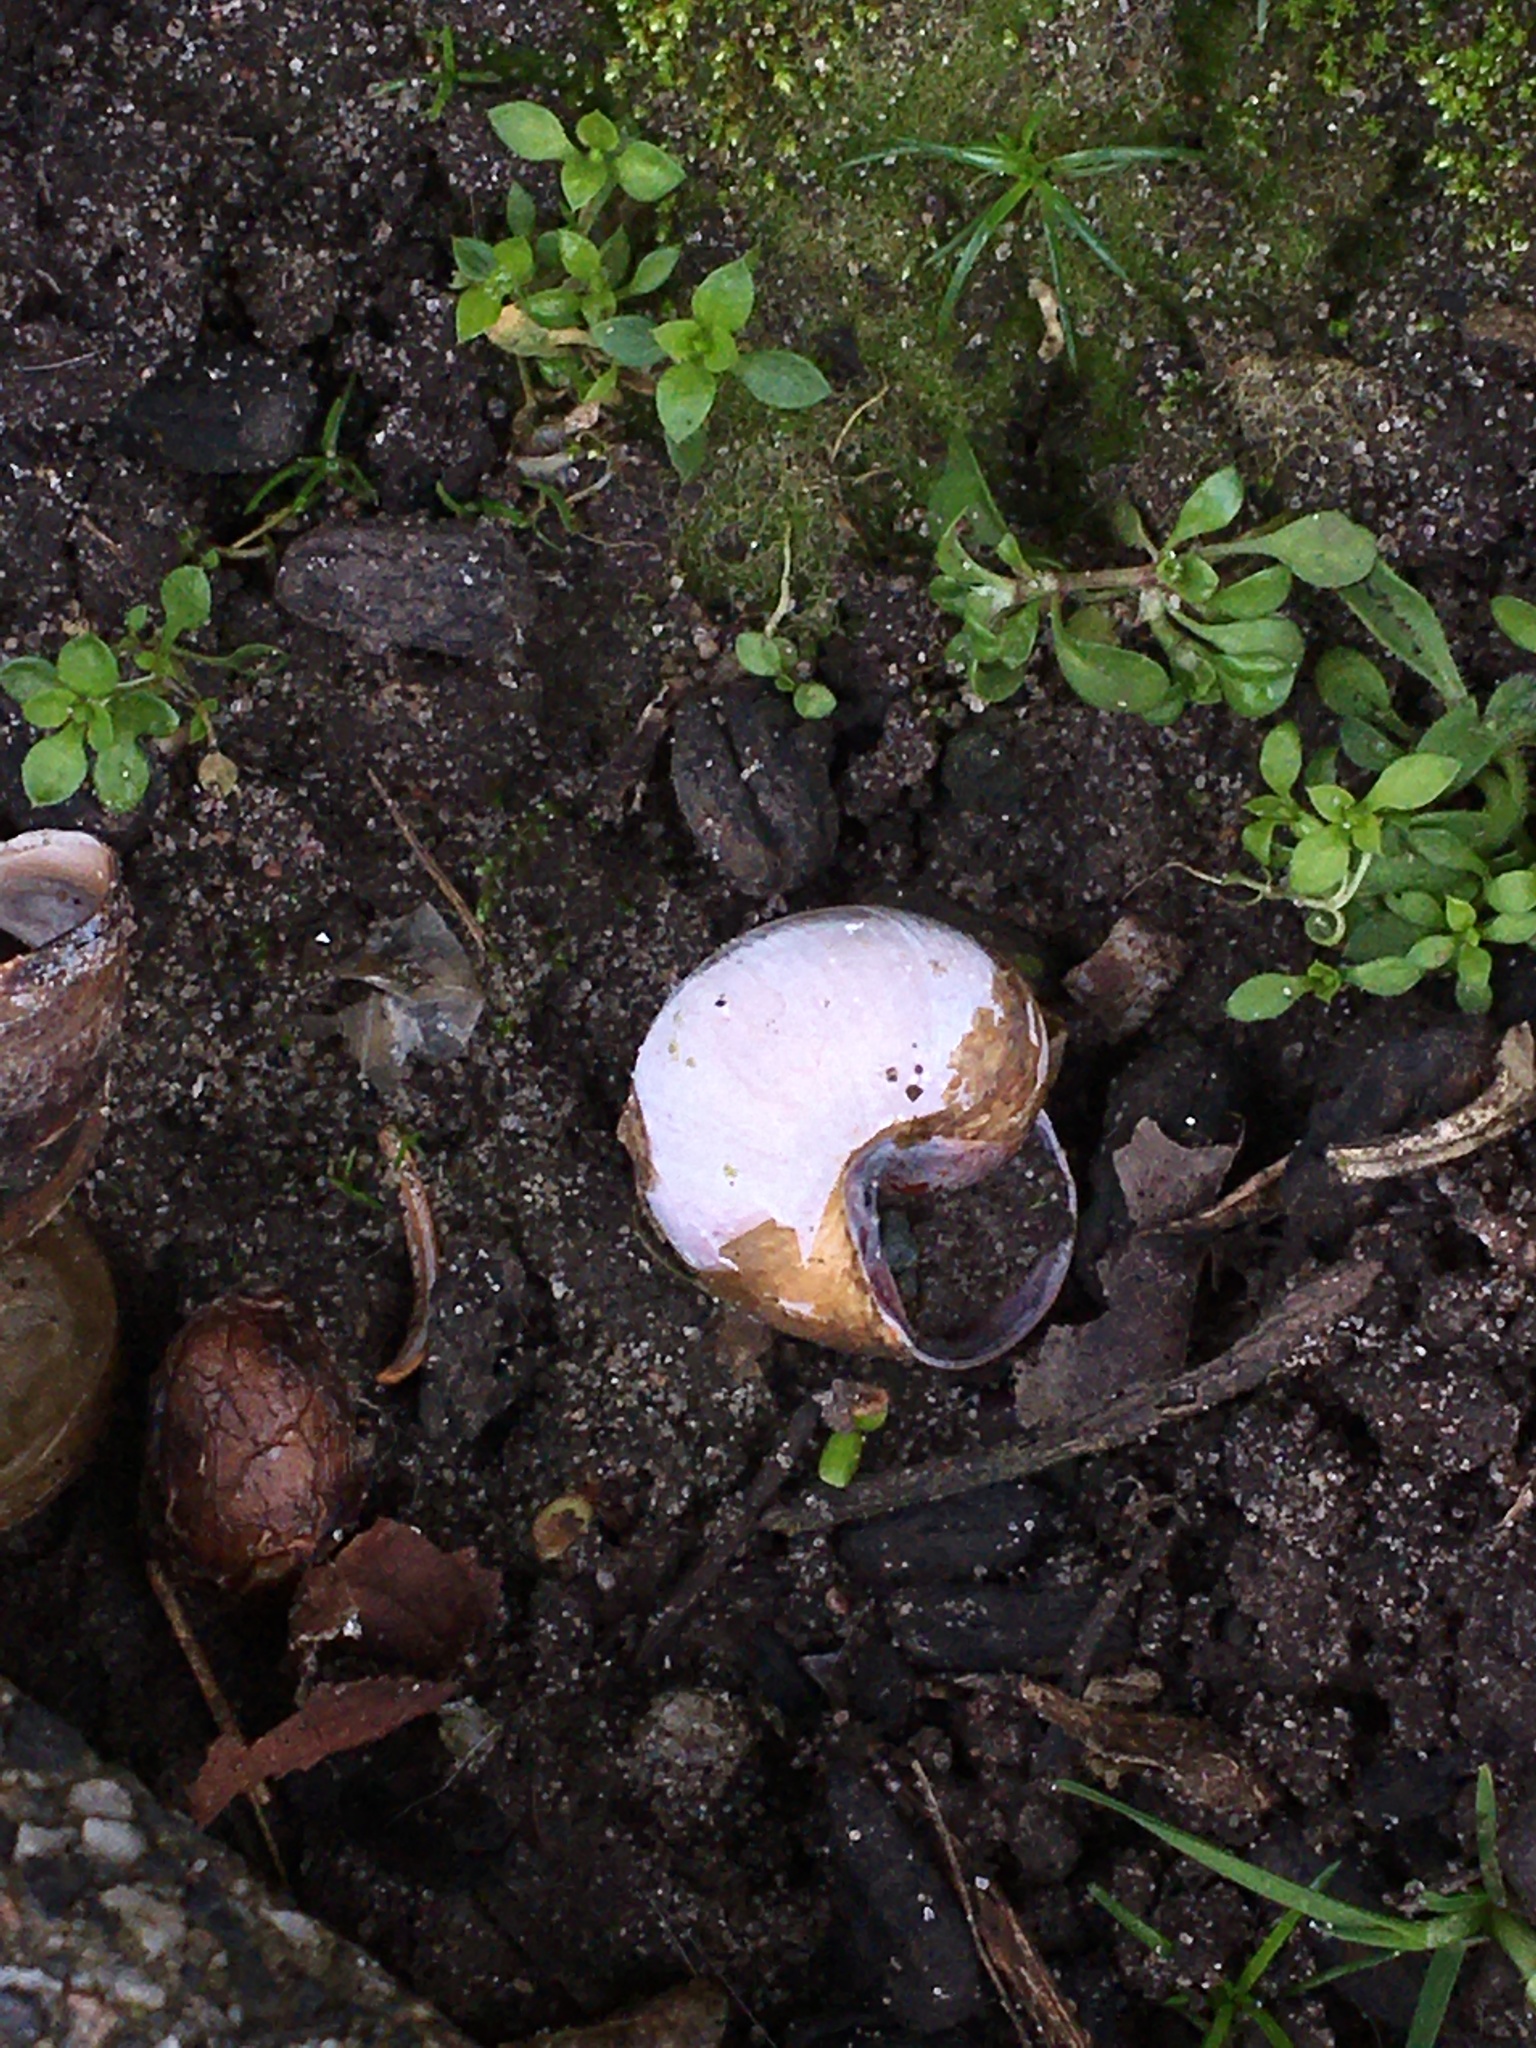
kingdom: Animalia
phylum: Mollusca
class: Gastropoda
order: Stylommatophora
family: Helicidae
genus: Cepaea
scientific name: Cepaea nemoralis
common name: Grovesnail
